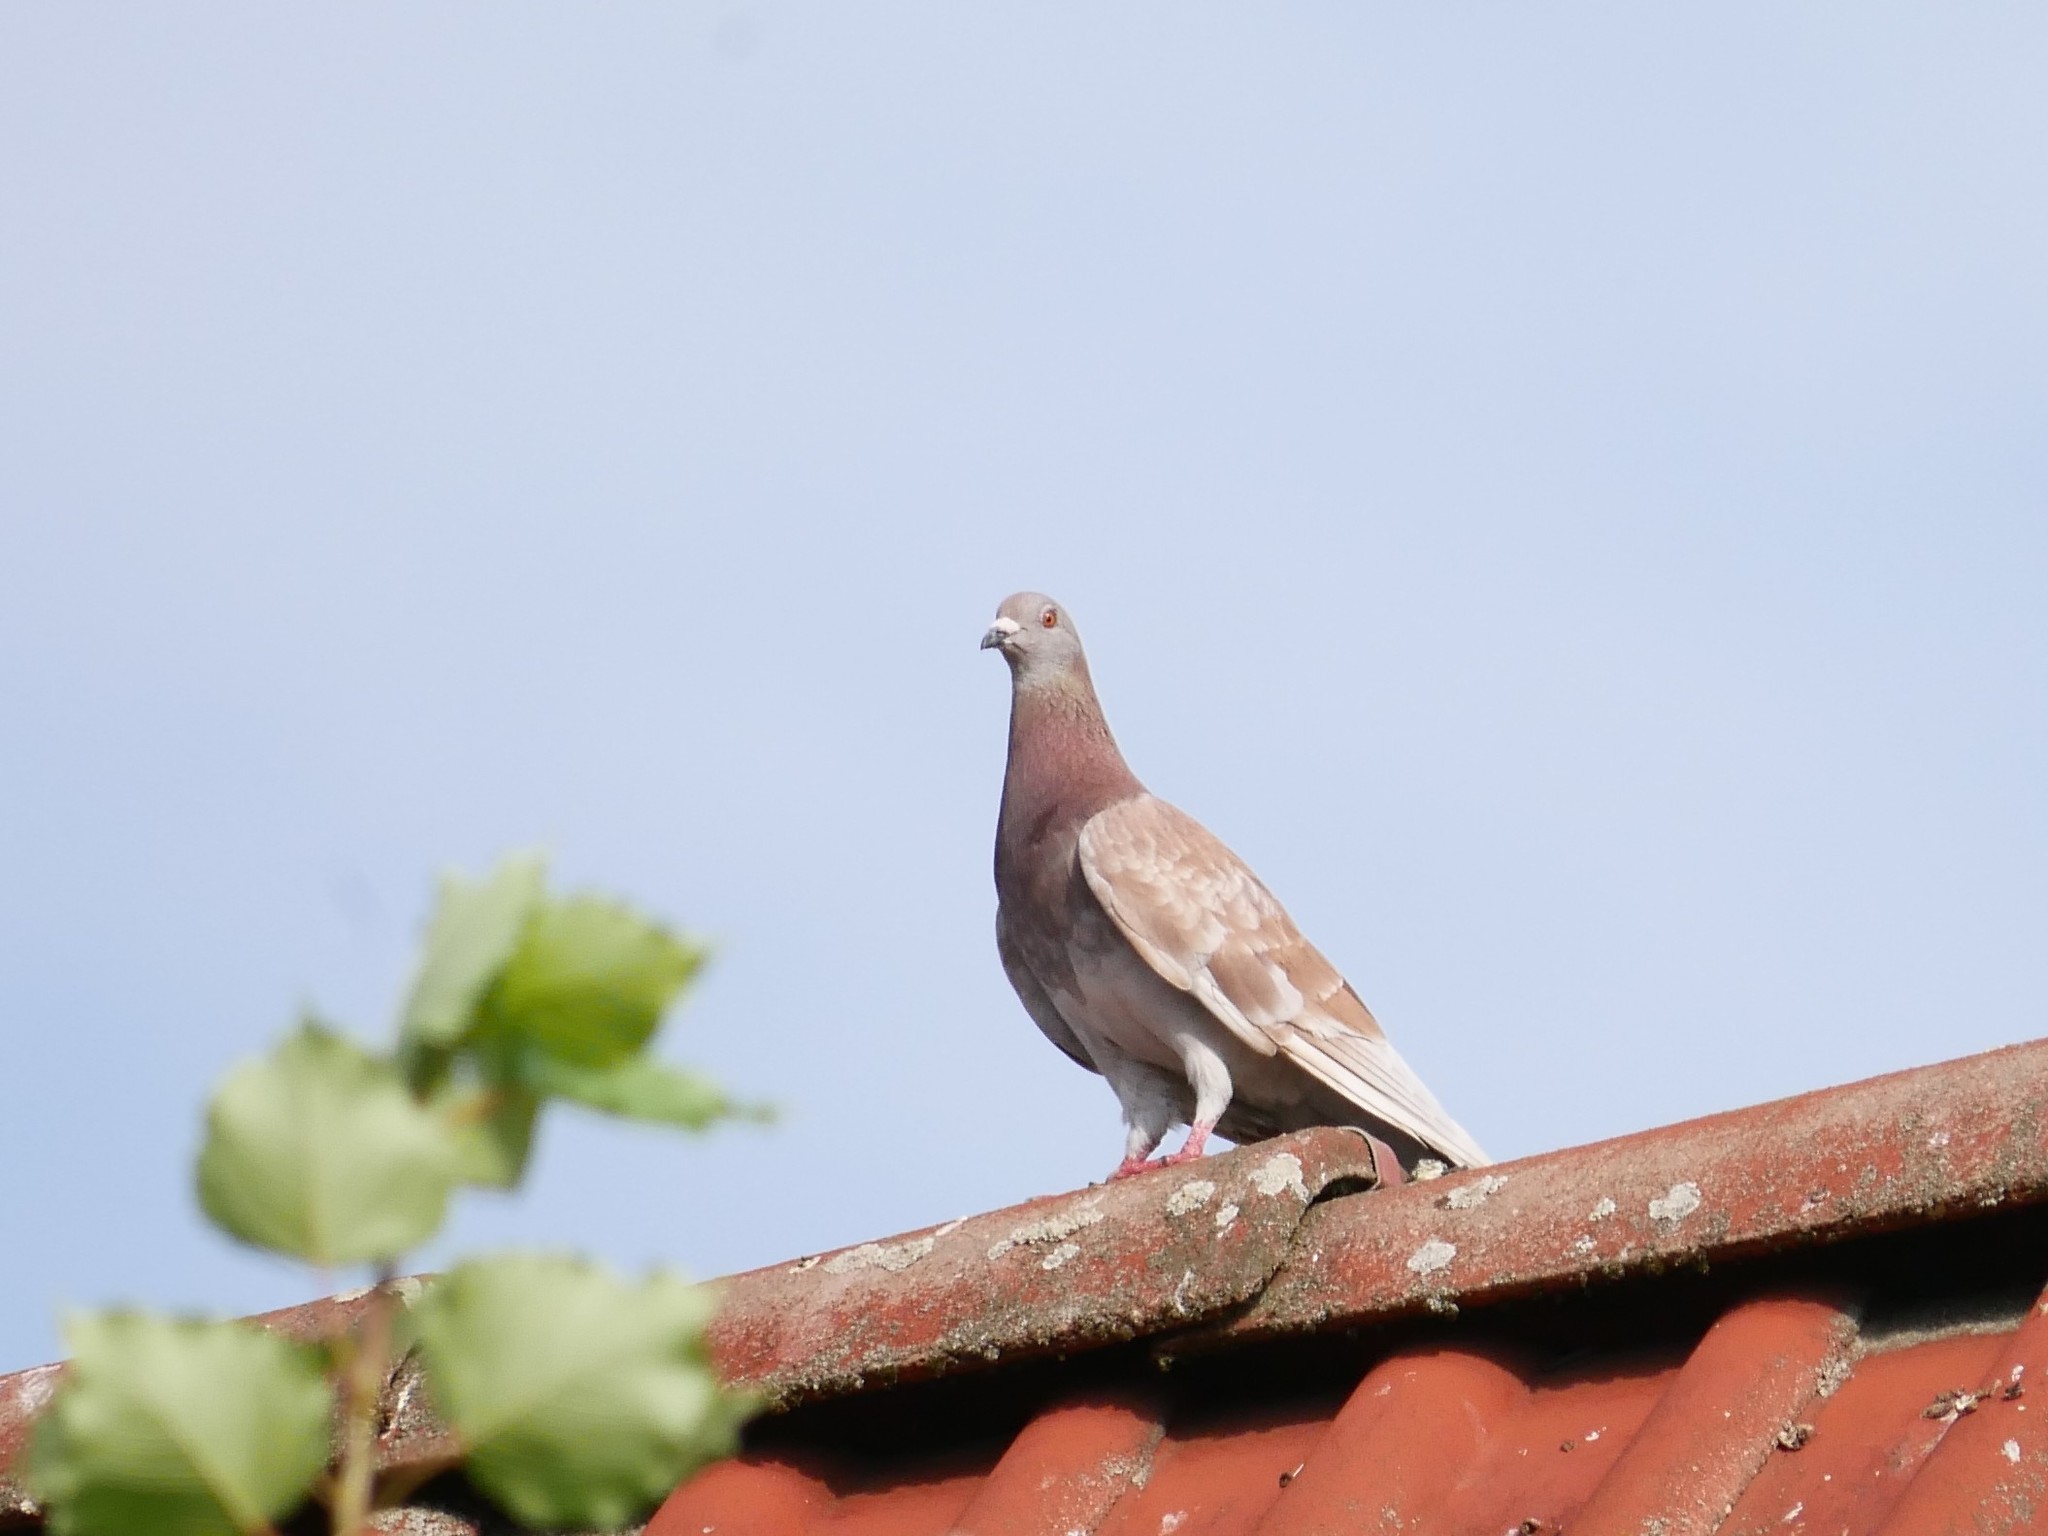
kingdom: Animalia
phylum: Chordata
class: Aves
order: Columbiformes
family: Columbidae
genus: Columba
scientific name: Columba livia
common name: Rock pigeon
